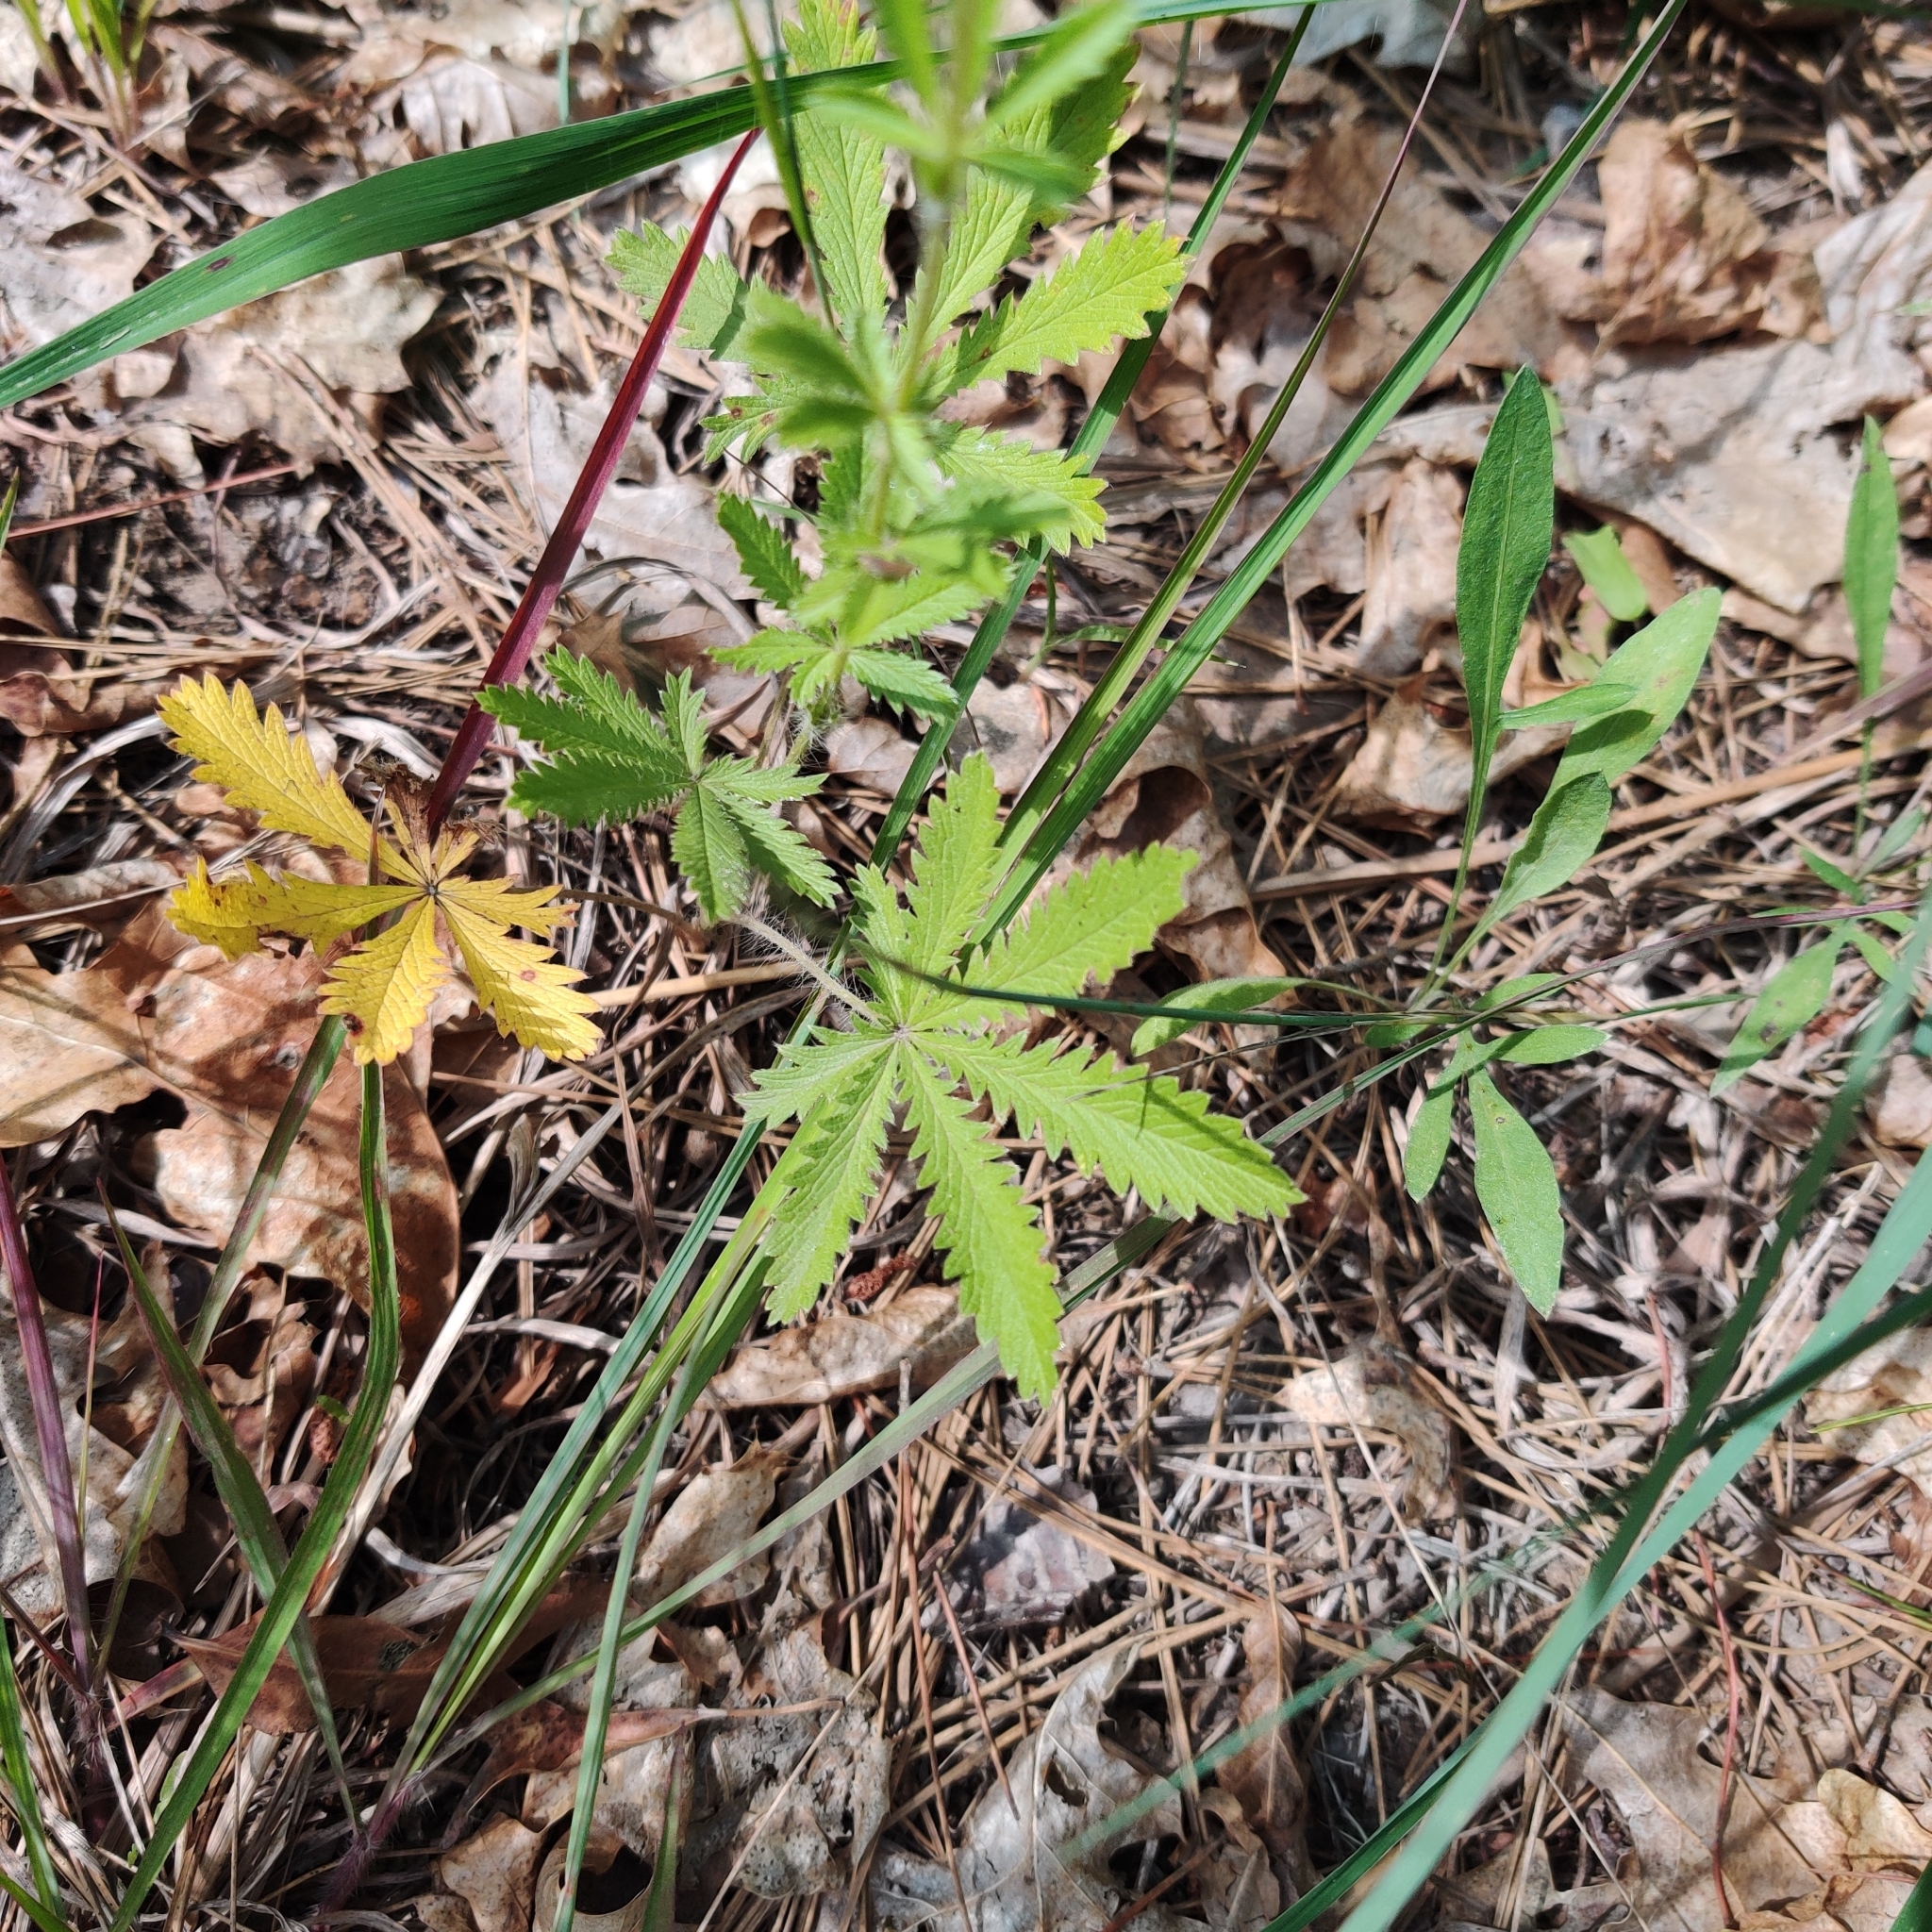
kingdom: Plantae
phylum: Tracheophyta
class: Magnoliopsida
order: Rosales
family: Rosaceae
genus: Potentilla
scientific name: Potentilla recta
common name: Sulphur cinquefoil
